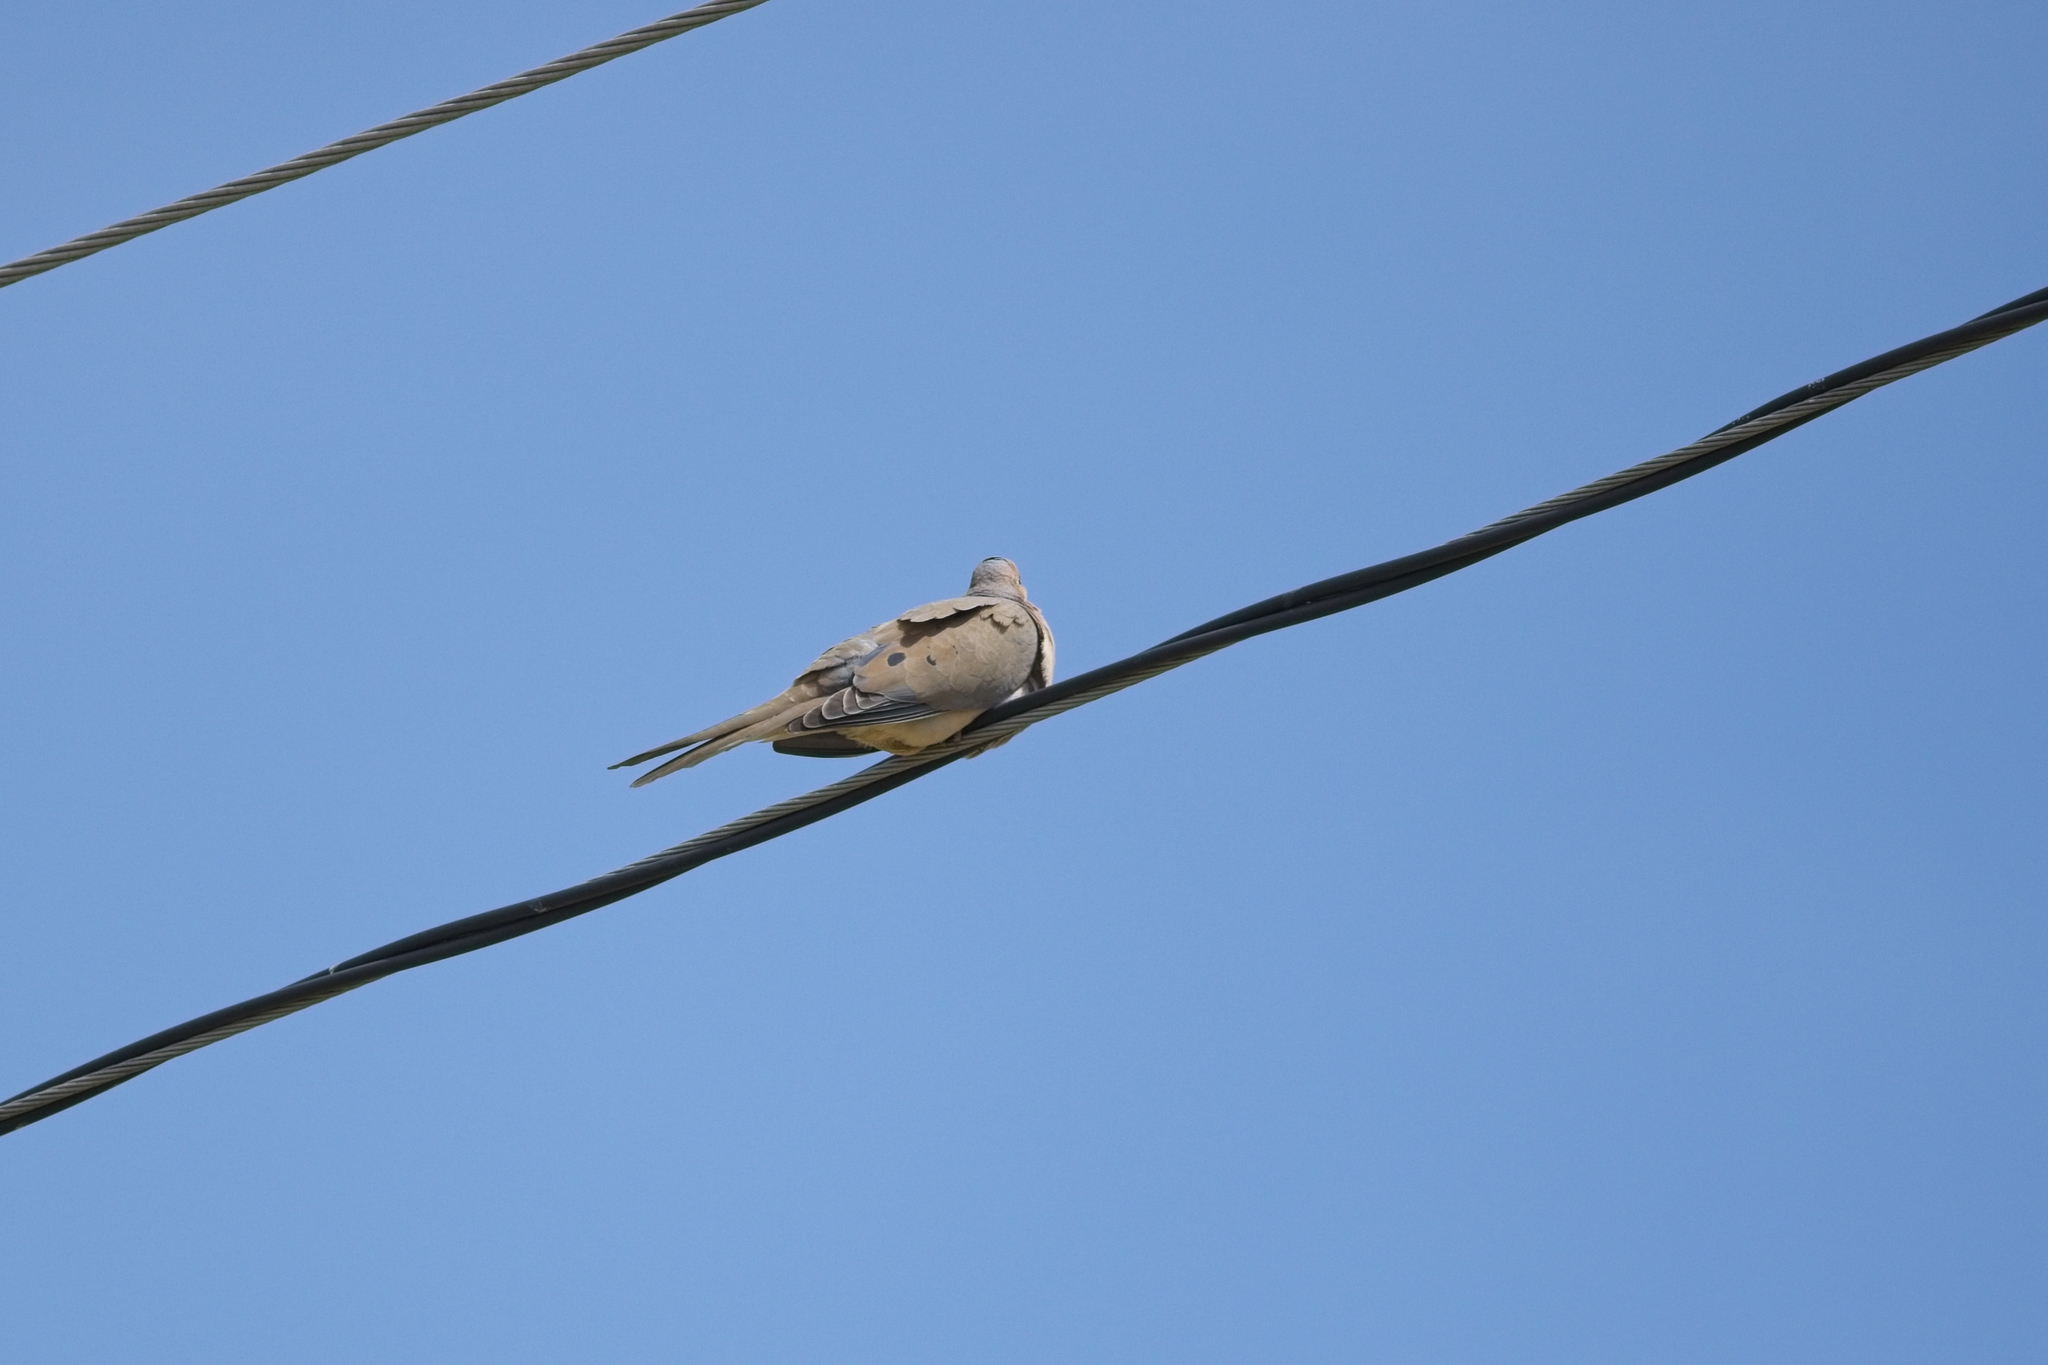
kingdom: Animalia
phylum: Chordata
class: Aves
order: Columbiformes
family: Columbidae
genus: Zenaida
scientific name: Zenaida macroura
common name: Mourning dove
